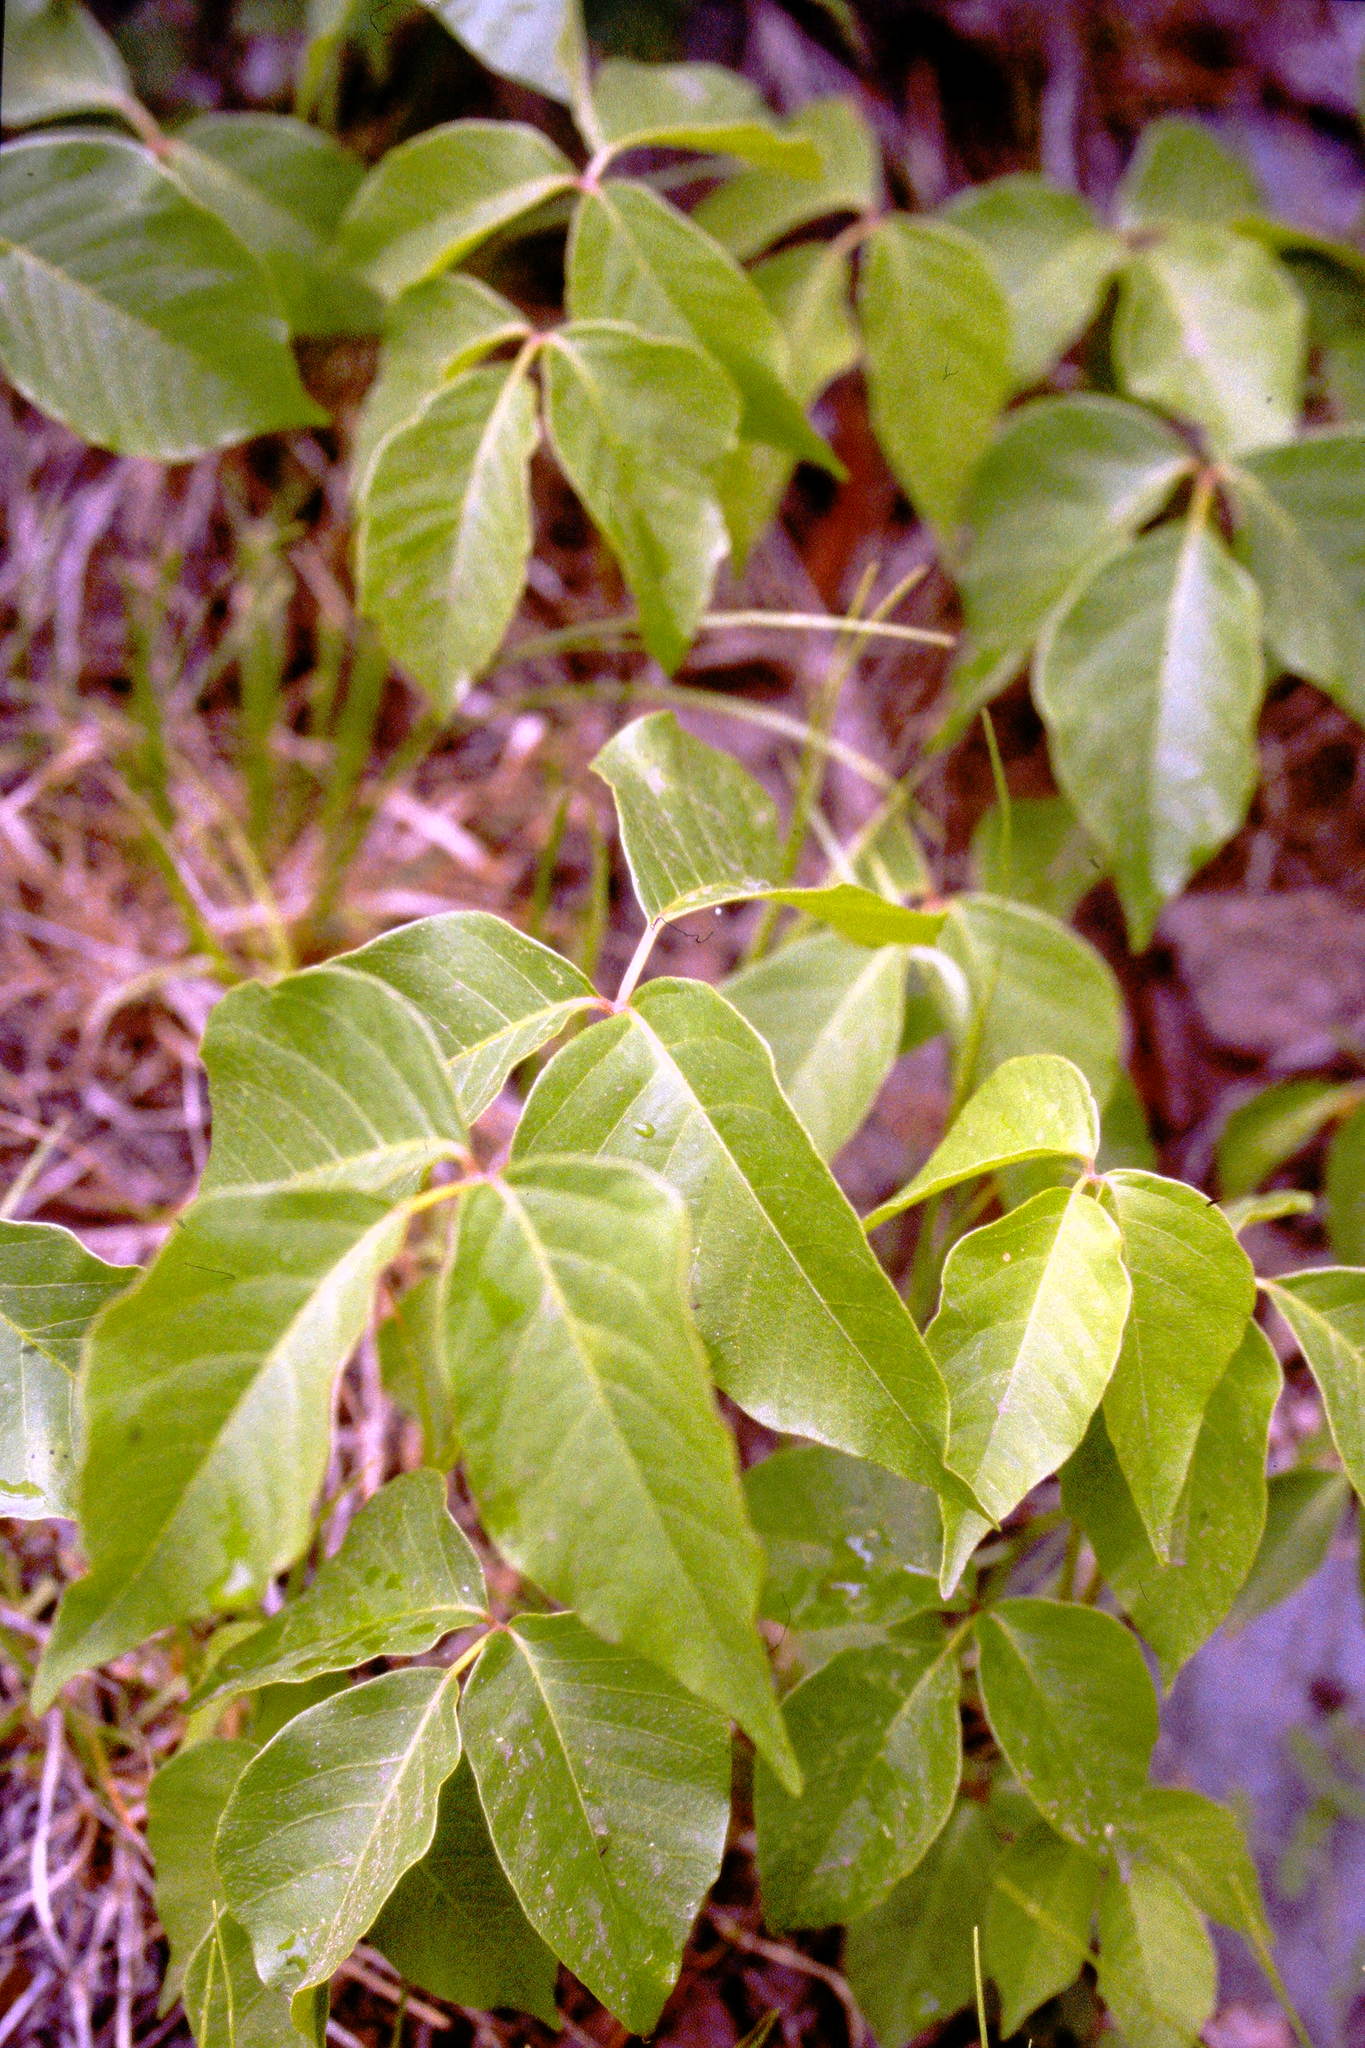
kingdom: Plantae
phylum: Tracheophyta
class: Magnoliopsida
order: Sapindales
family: Anacardiaceae
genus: Toxicodendron
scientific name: Toxicodendron rydbergii
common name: Rydberg's poison-ivy
